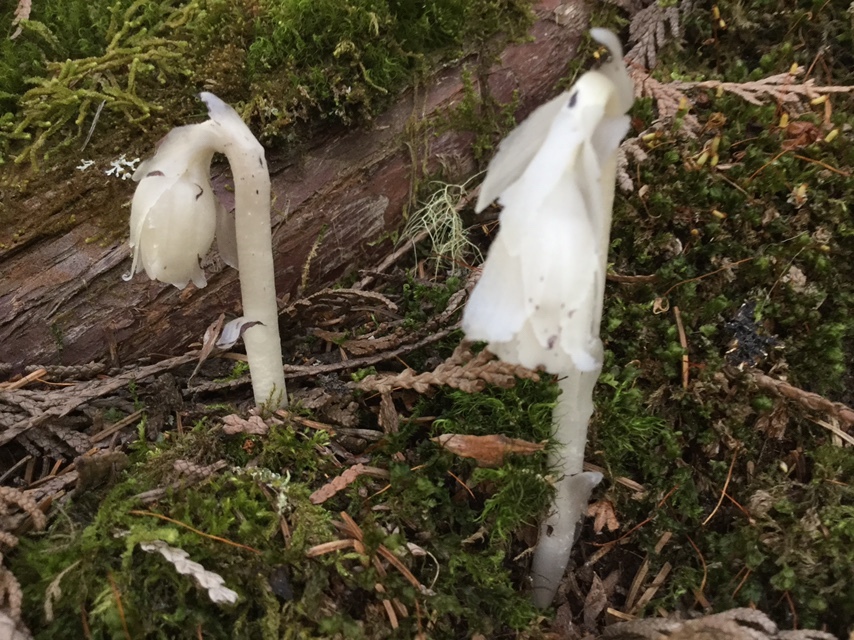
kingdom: Plantae
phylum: Tracheophyta
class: Magnoliopsida
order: Ericales
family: Ericaceae
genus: Monotropa
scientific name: Monotropa uniflora
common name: Convulsion root
